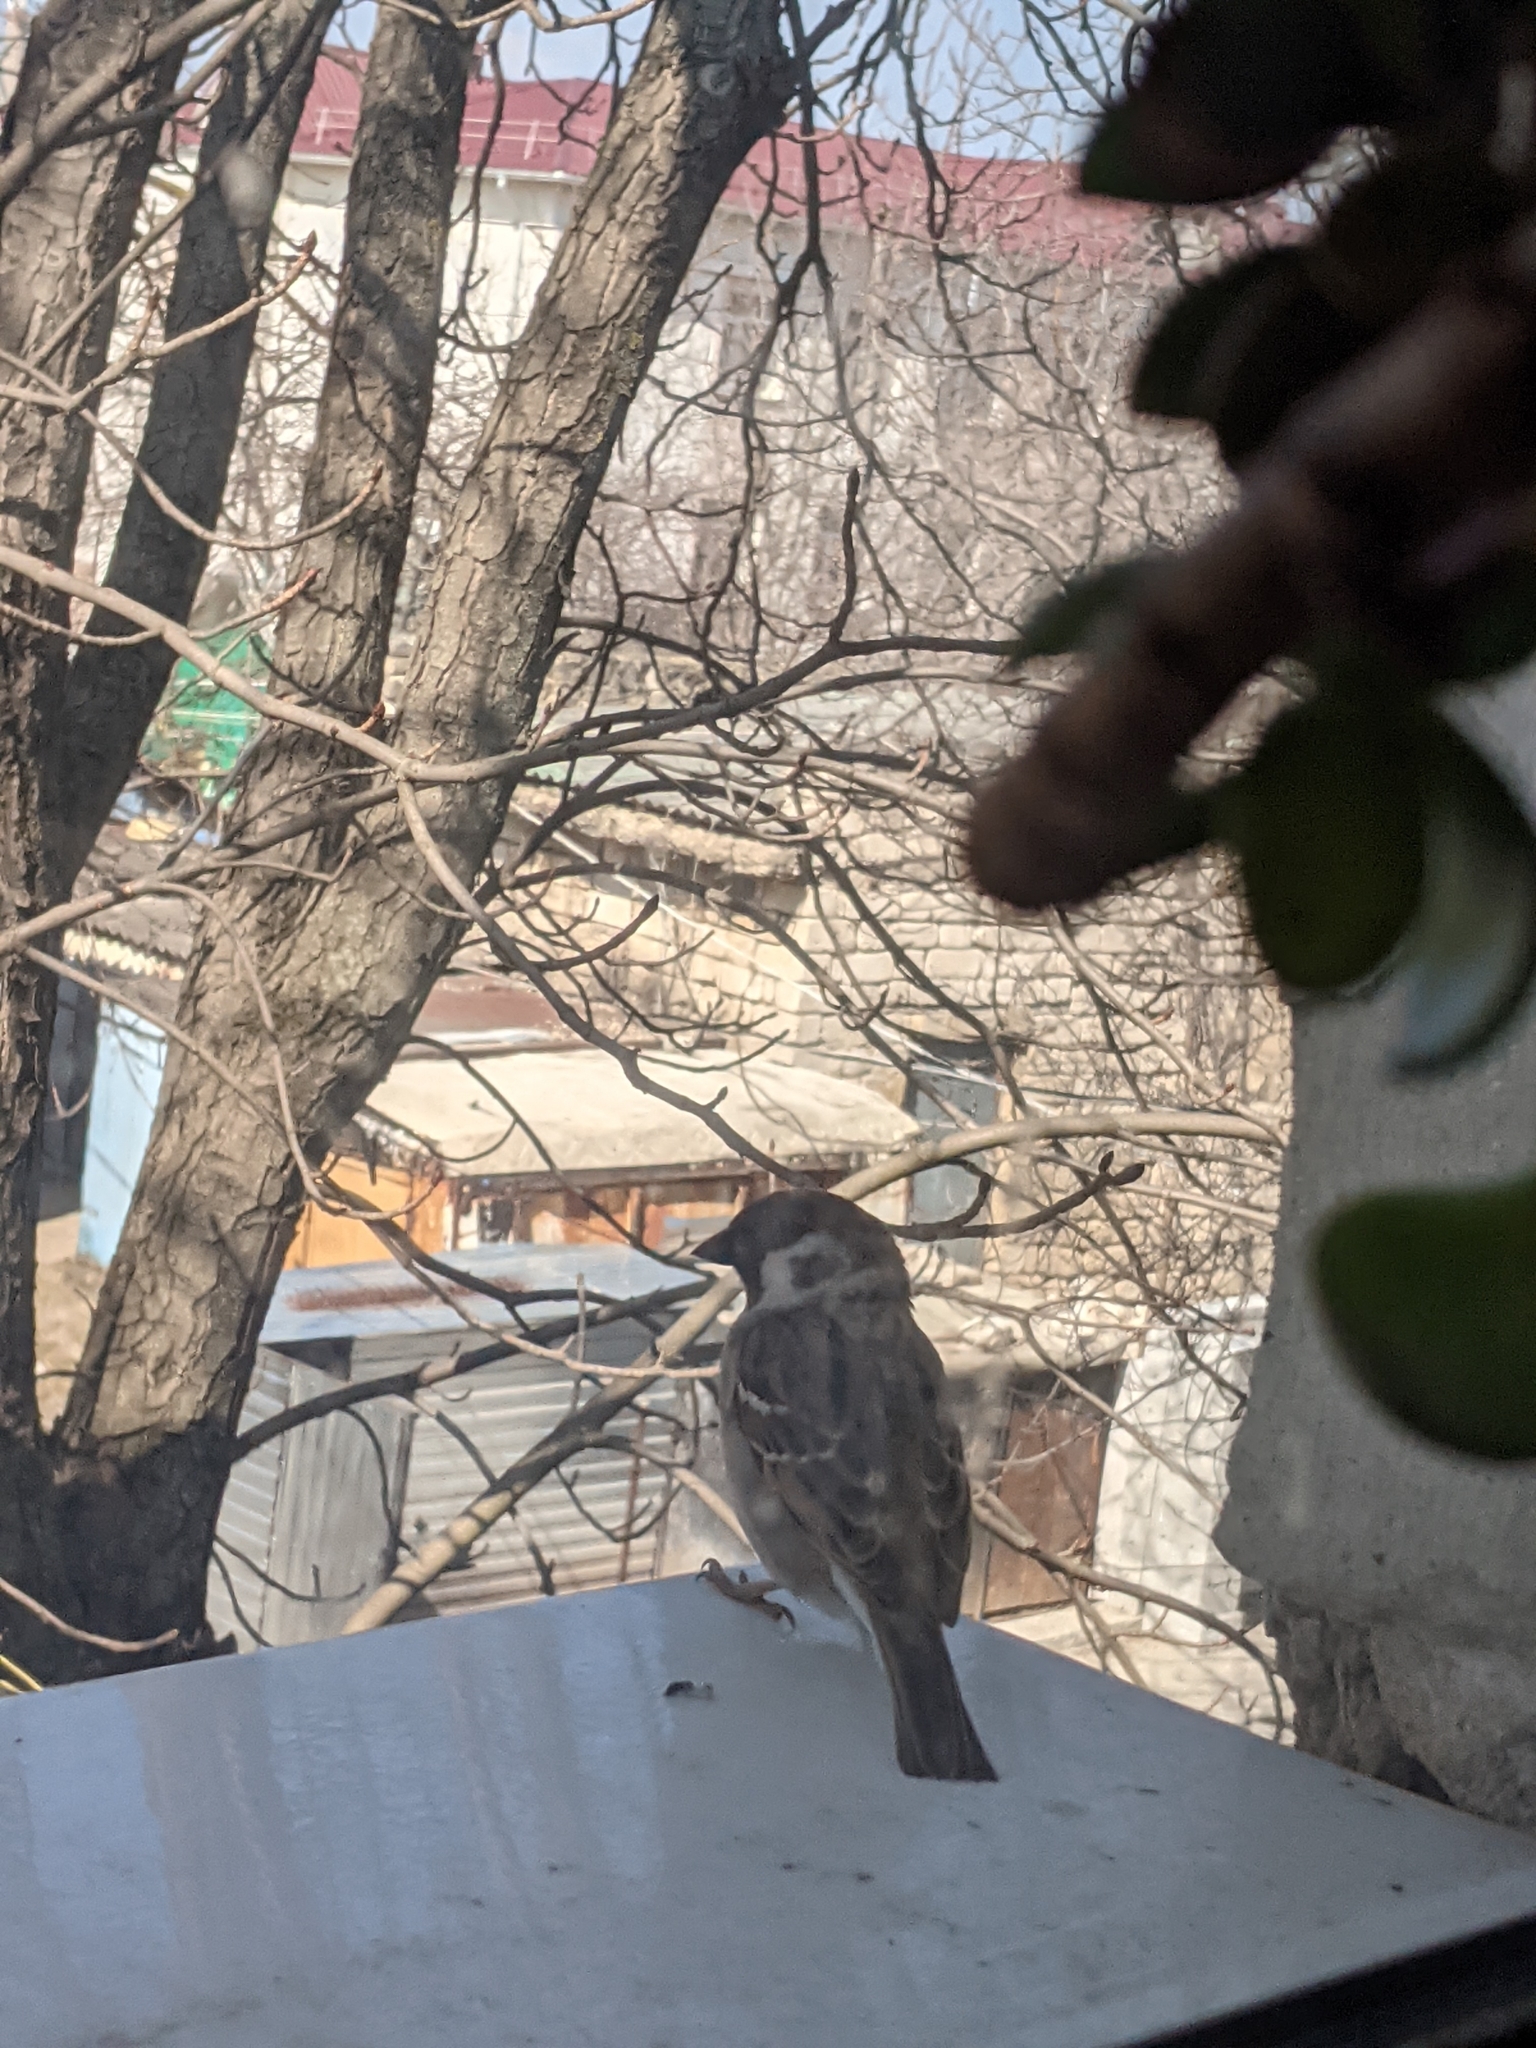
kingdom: Animalia
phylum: Chordata
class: Aves
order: Passeriformes
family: Passeridae
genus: Passer
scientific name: Passer montanus
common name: Eurasian tree sparrow
